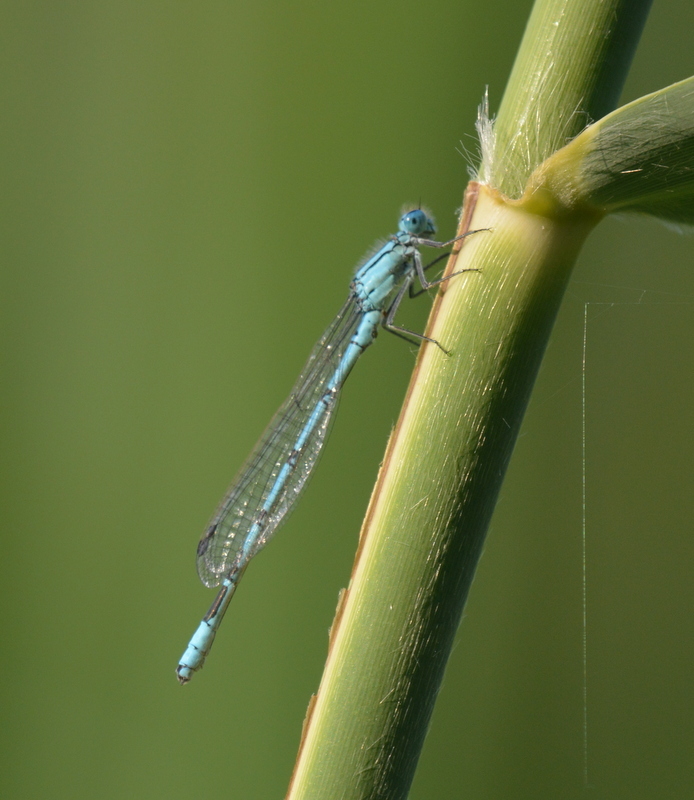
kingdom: Animalia
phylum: Arthropoda
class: Insecta
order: Odonata
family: Coenagrionidae
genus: Enallagma
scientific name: Enallagma cyathigerum
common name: Common blue damselfly
